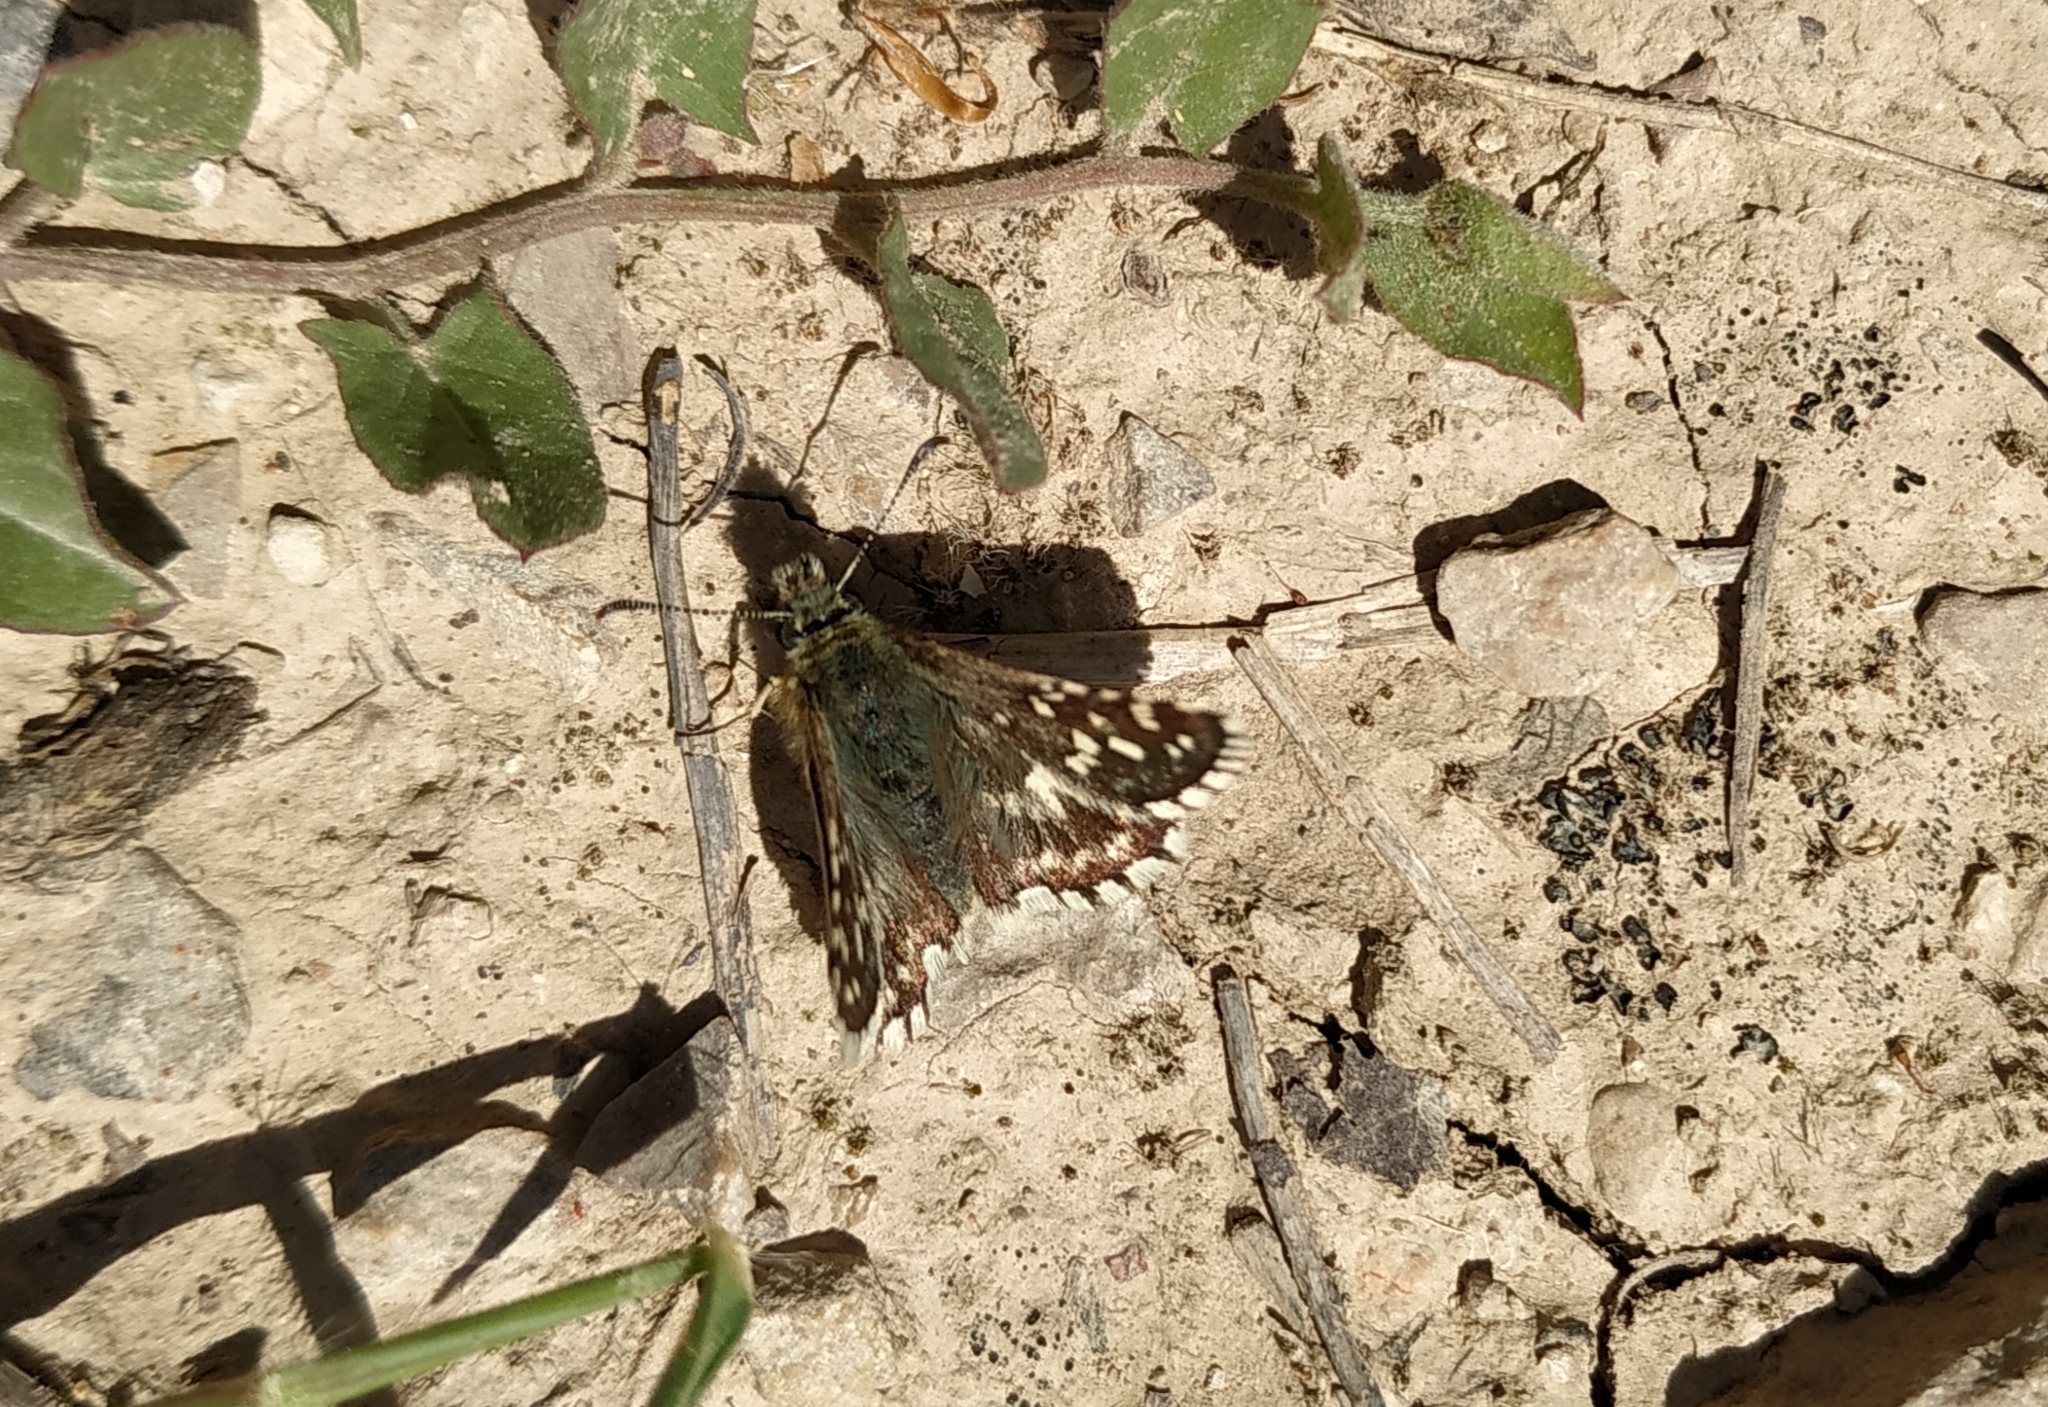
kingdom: Animalia
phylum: Arthropoda
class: Insecta
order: Lepidoptera
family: Hesperiidae
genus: Pyrgus
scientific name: Pyrgus malvoides
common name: Southern grizzled skipper
